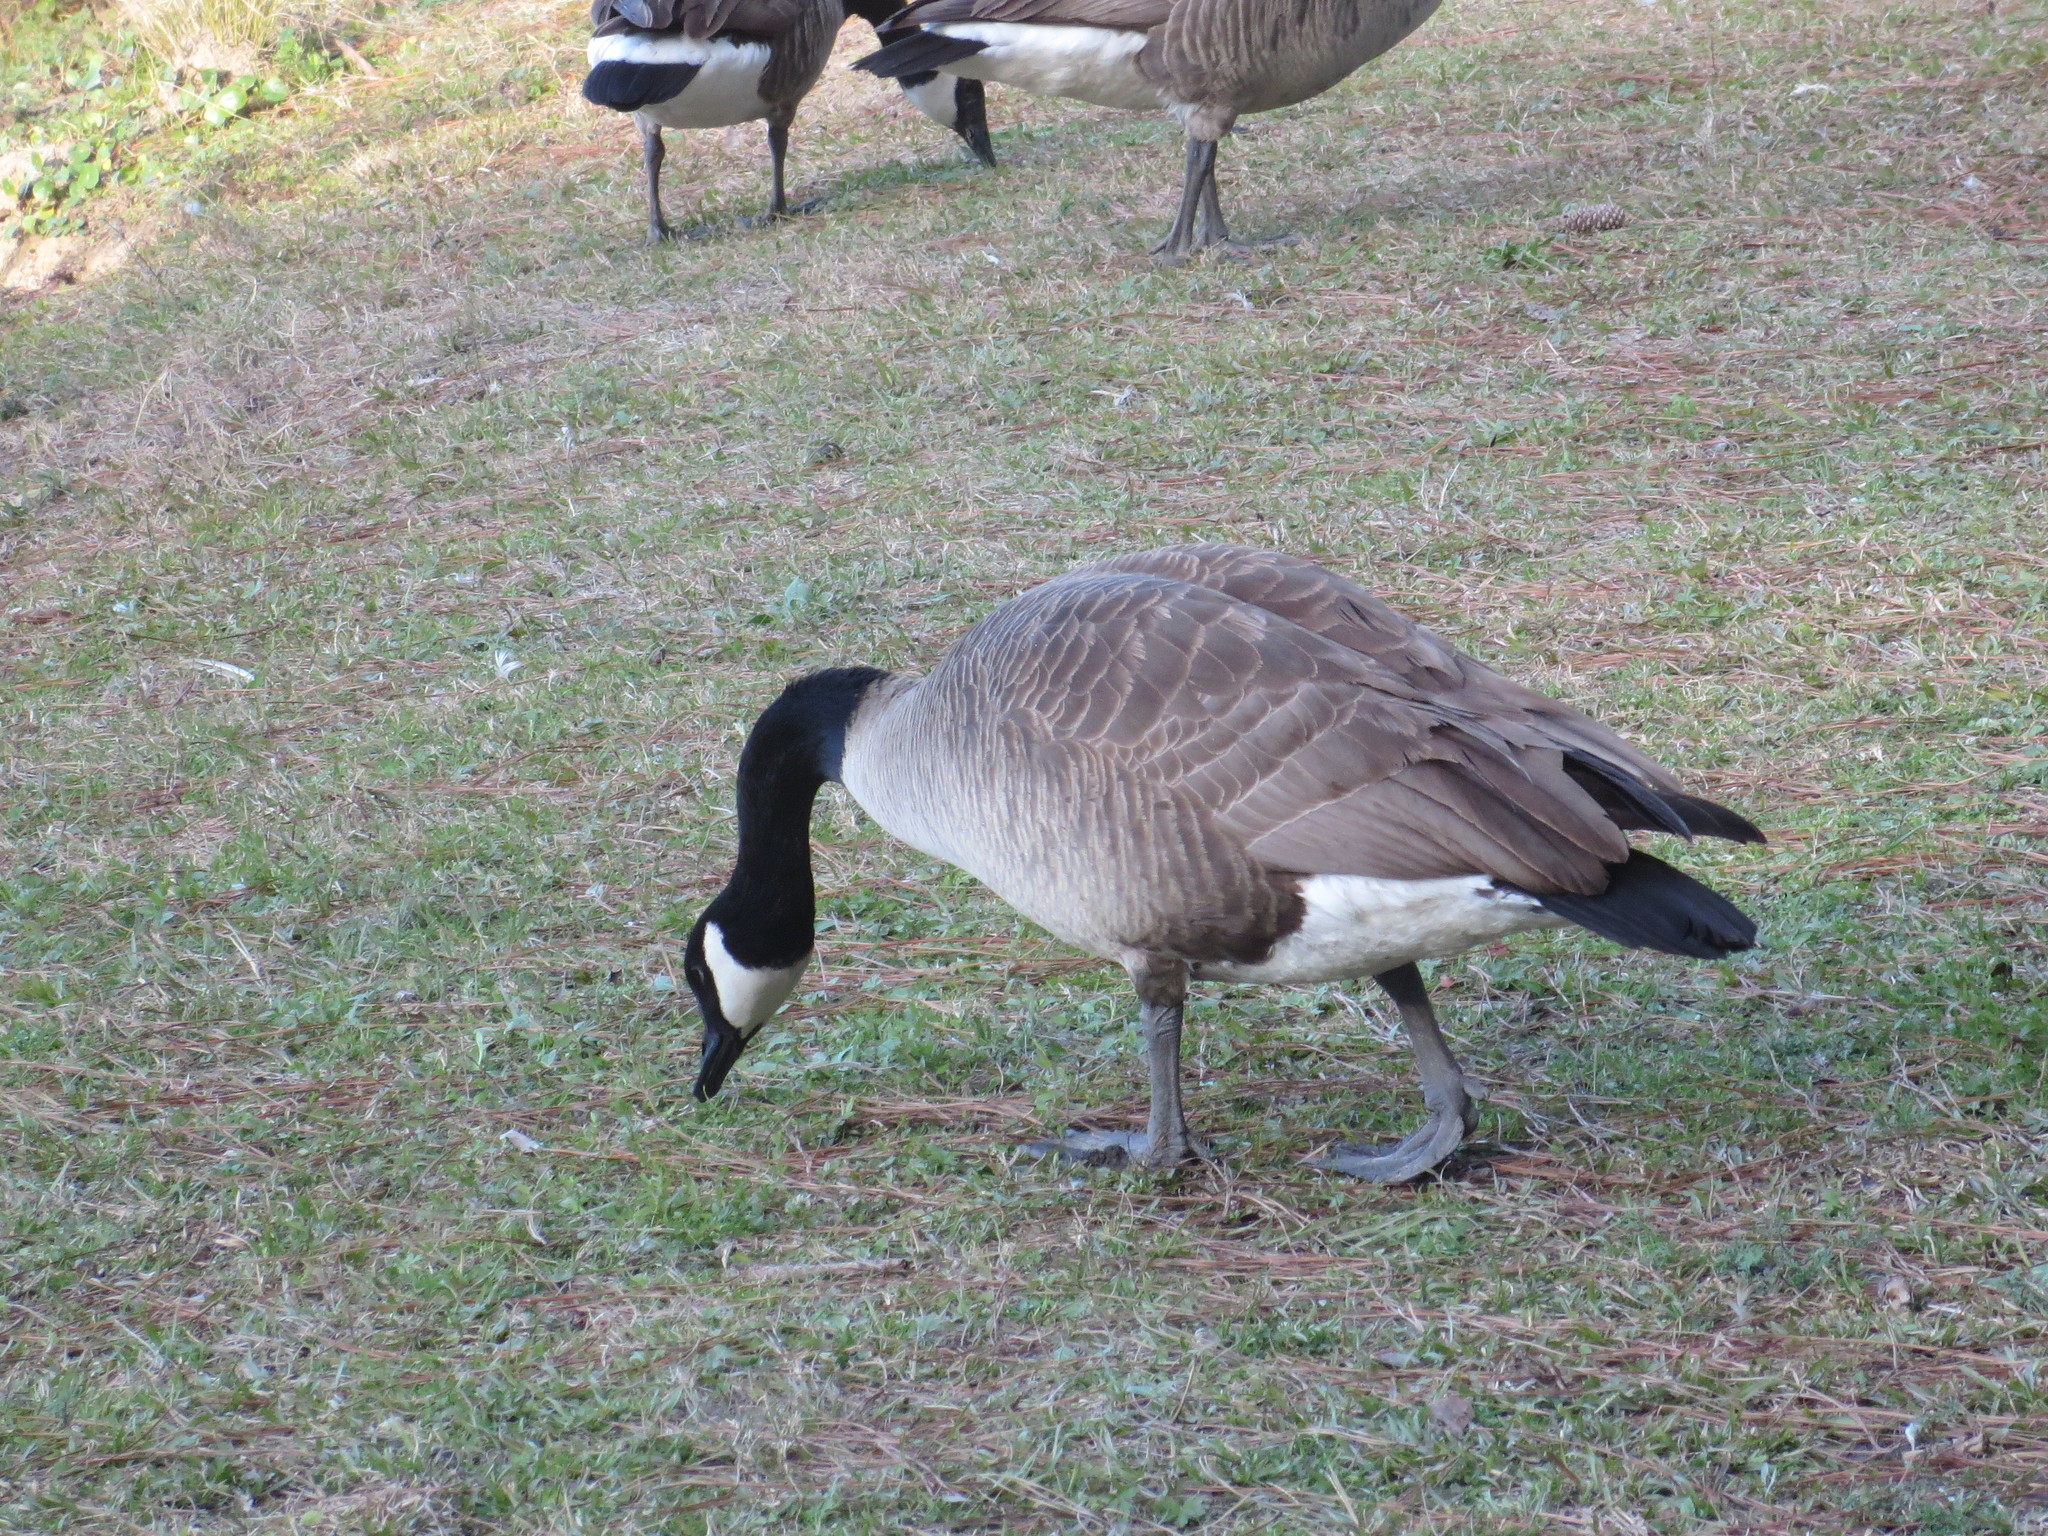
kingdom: Animalia
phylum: Chordata
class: Aves
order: Anseriformes
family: Anatidae
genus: Branta
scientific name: Branta canadensis
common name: Canada goose
